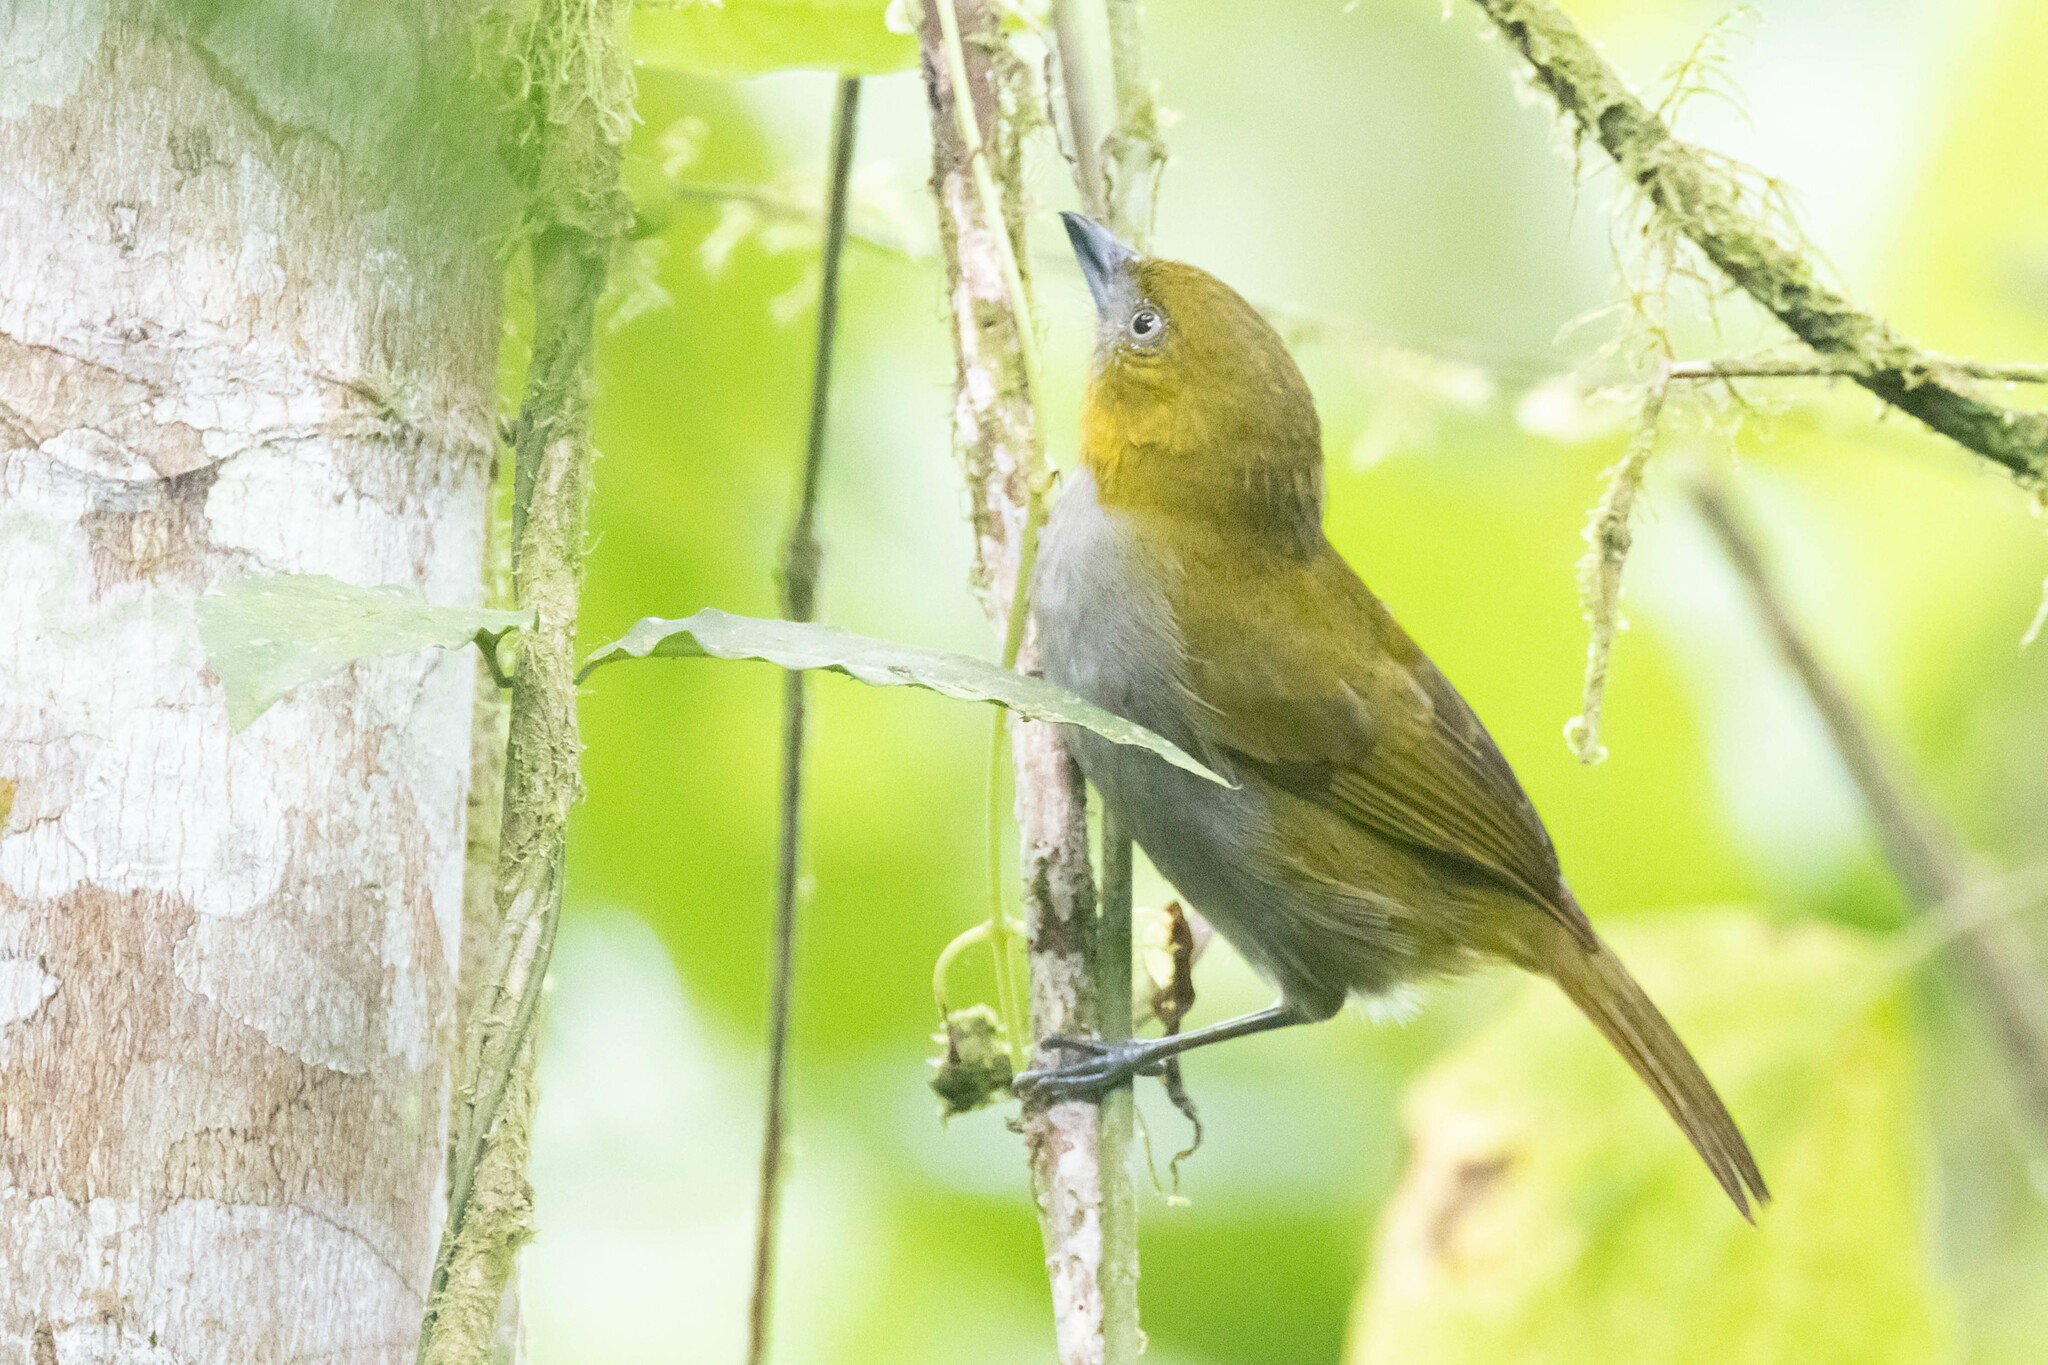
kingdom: Animalia
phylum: Chordata
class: Aves
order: Passeriformes
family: Passerellidae
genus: Chlorospingus
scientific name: Chlorospingus flavigularis
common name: Yellow-throated bush-tanager
